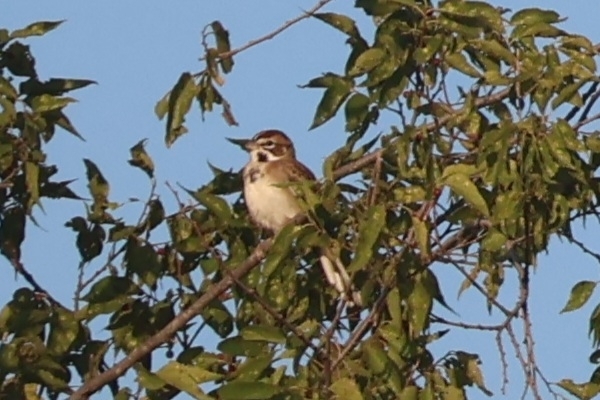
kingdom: Animalia
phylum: Chordata
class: Aves
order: Passeriformes
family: Passerellidae
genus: Chondestes
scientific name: Chondestes grammacus
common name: Lark sparrow
